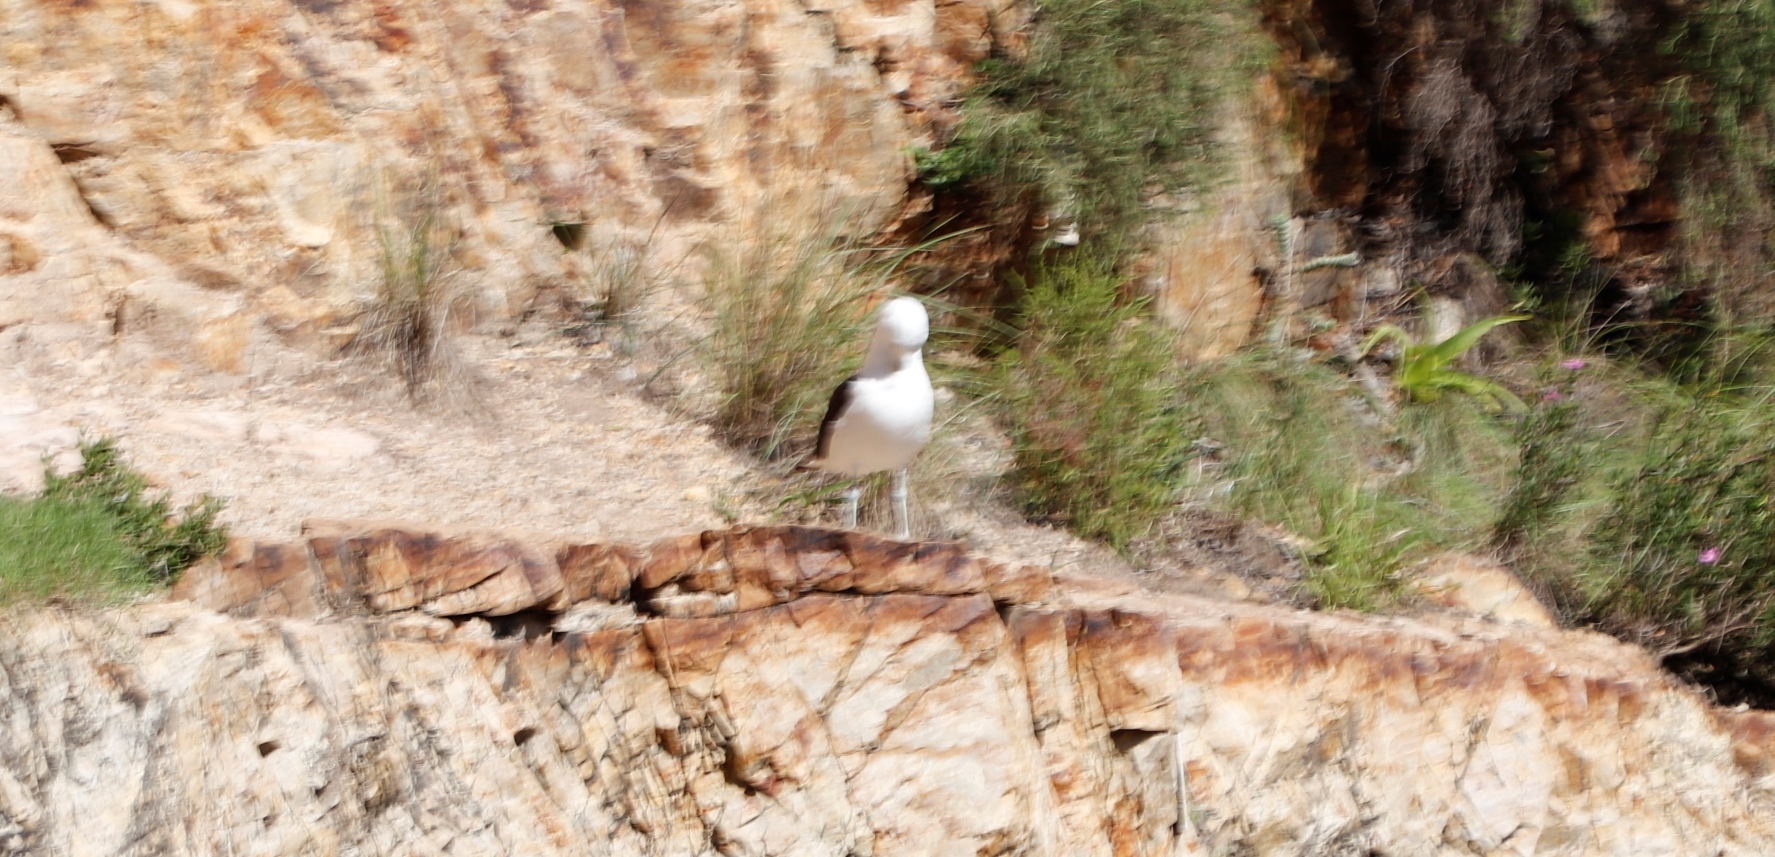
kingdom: Animalia
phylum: Chordata
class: Aves
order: Charadriiformes
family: Laridae
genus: Larus
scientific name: Larus dominicanus
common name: Kelp gull
